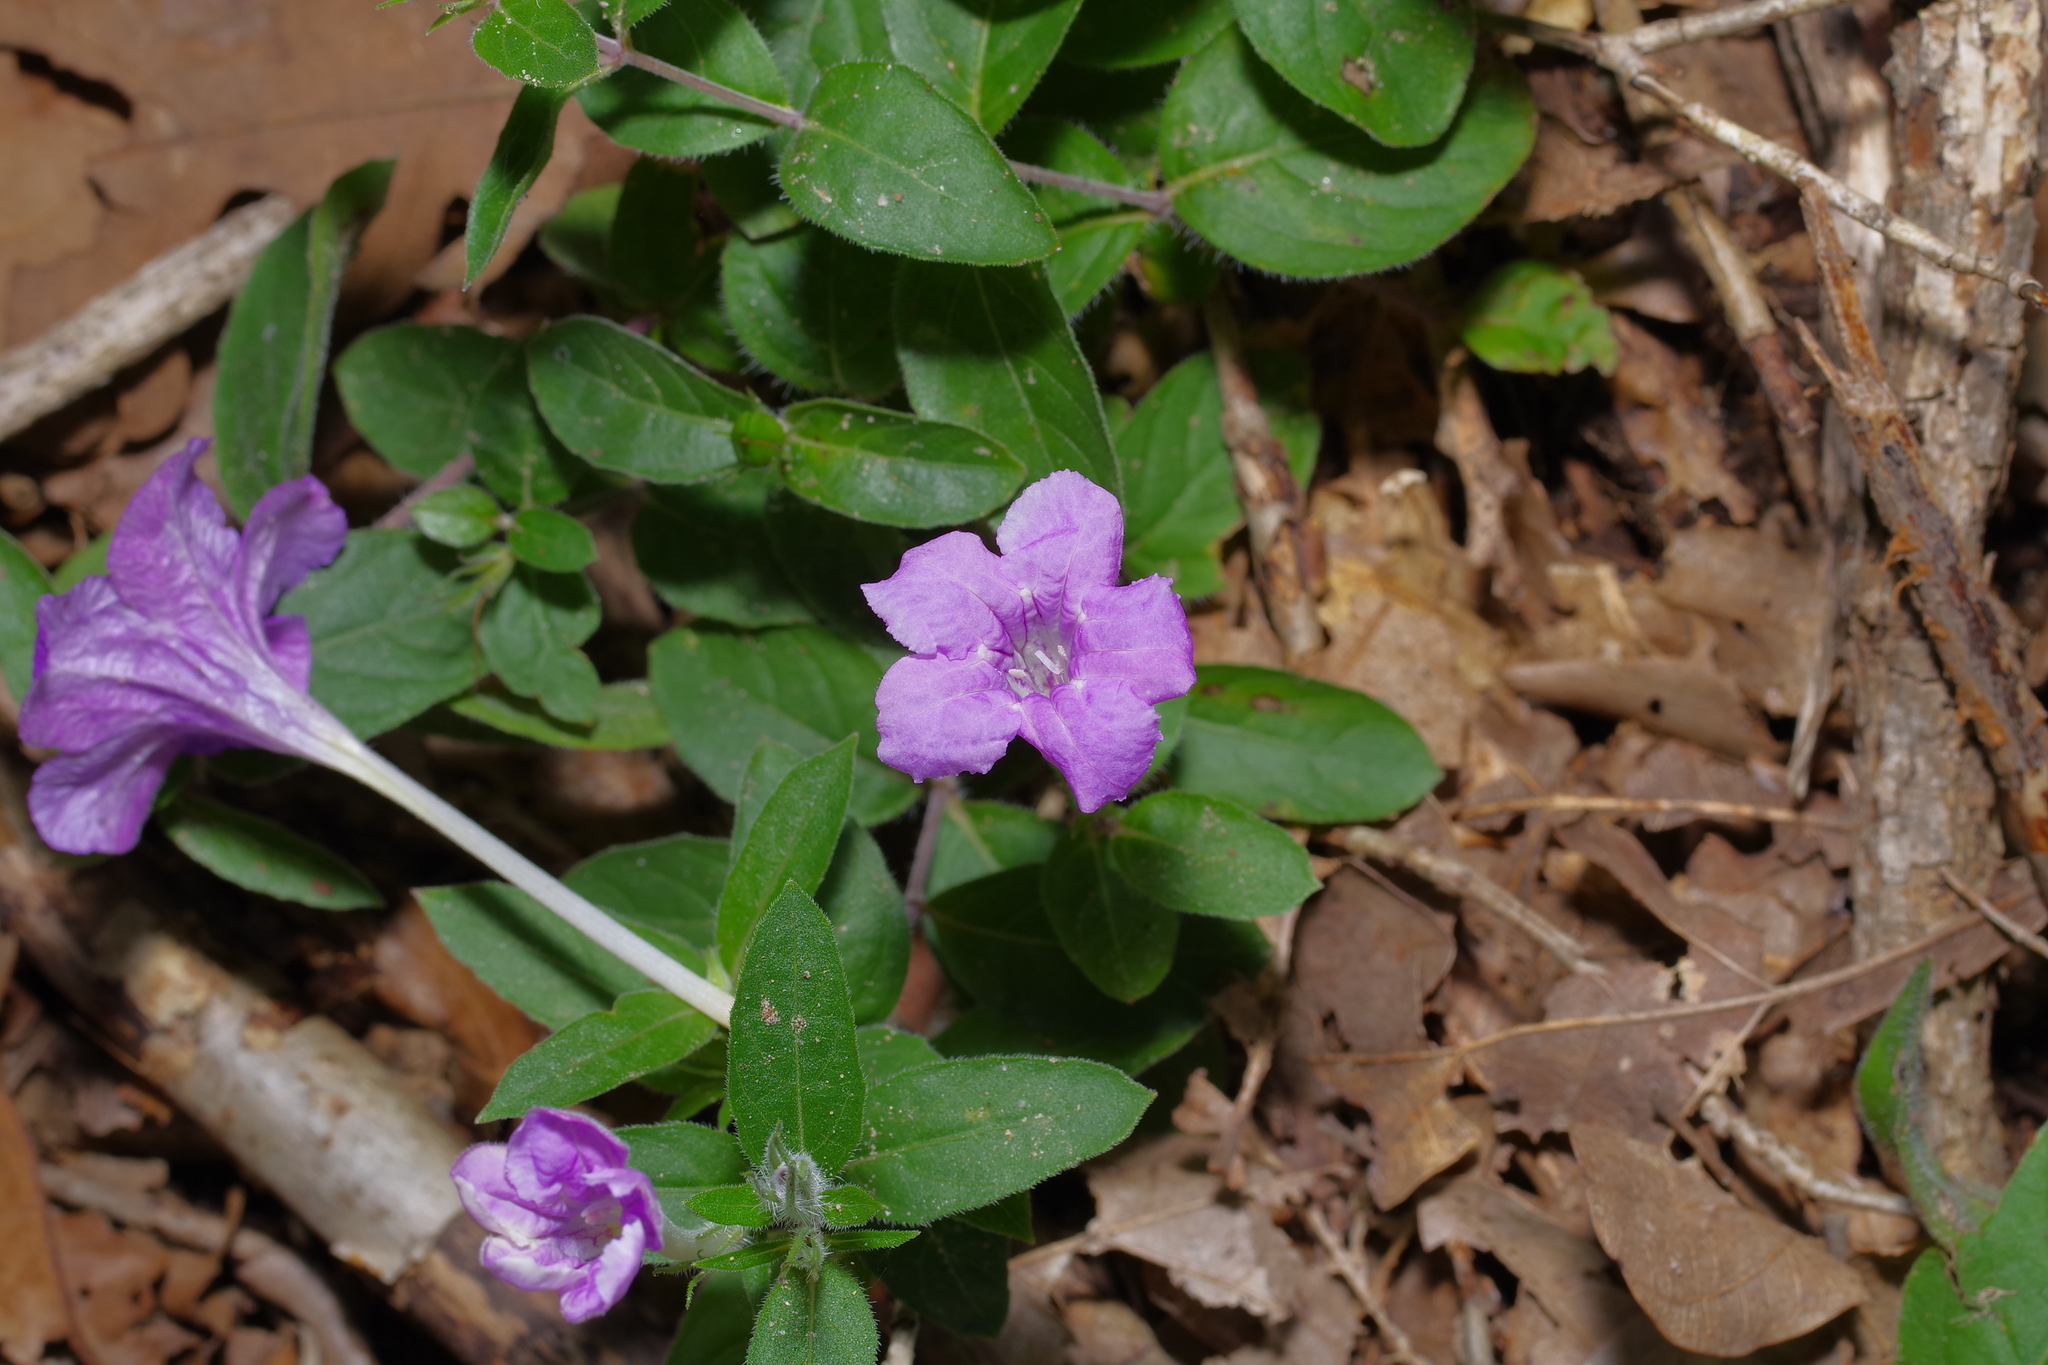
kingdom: Plantae
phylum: Tracheophyta
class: Magnoliopsida
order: Lamiales
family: Acanthaceae
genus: Ruellia
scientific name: Ruellia humilis
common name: Fringe-leaf ruellia
